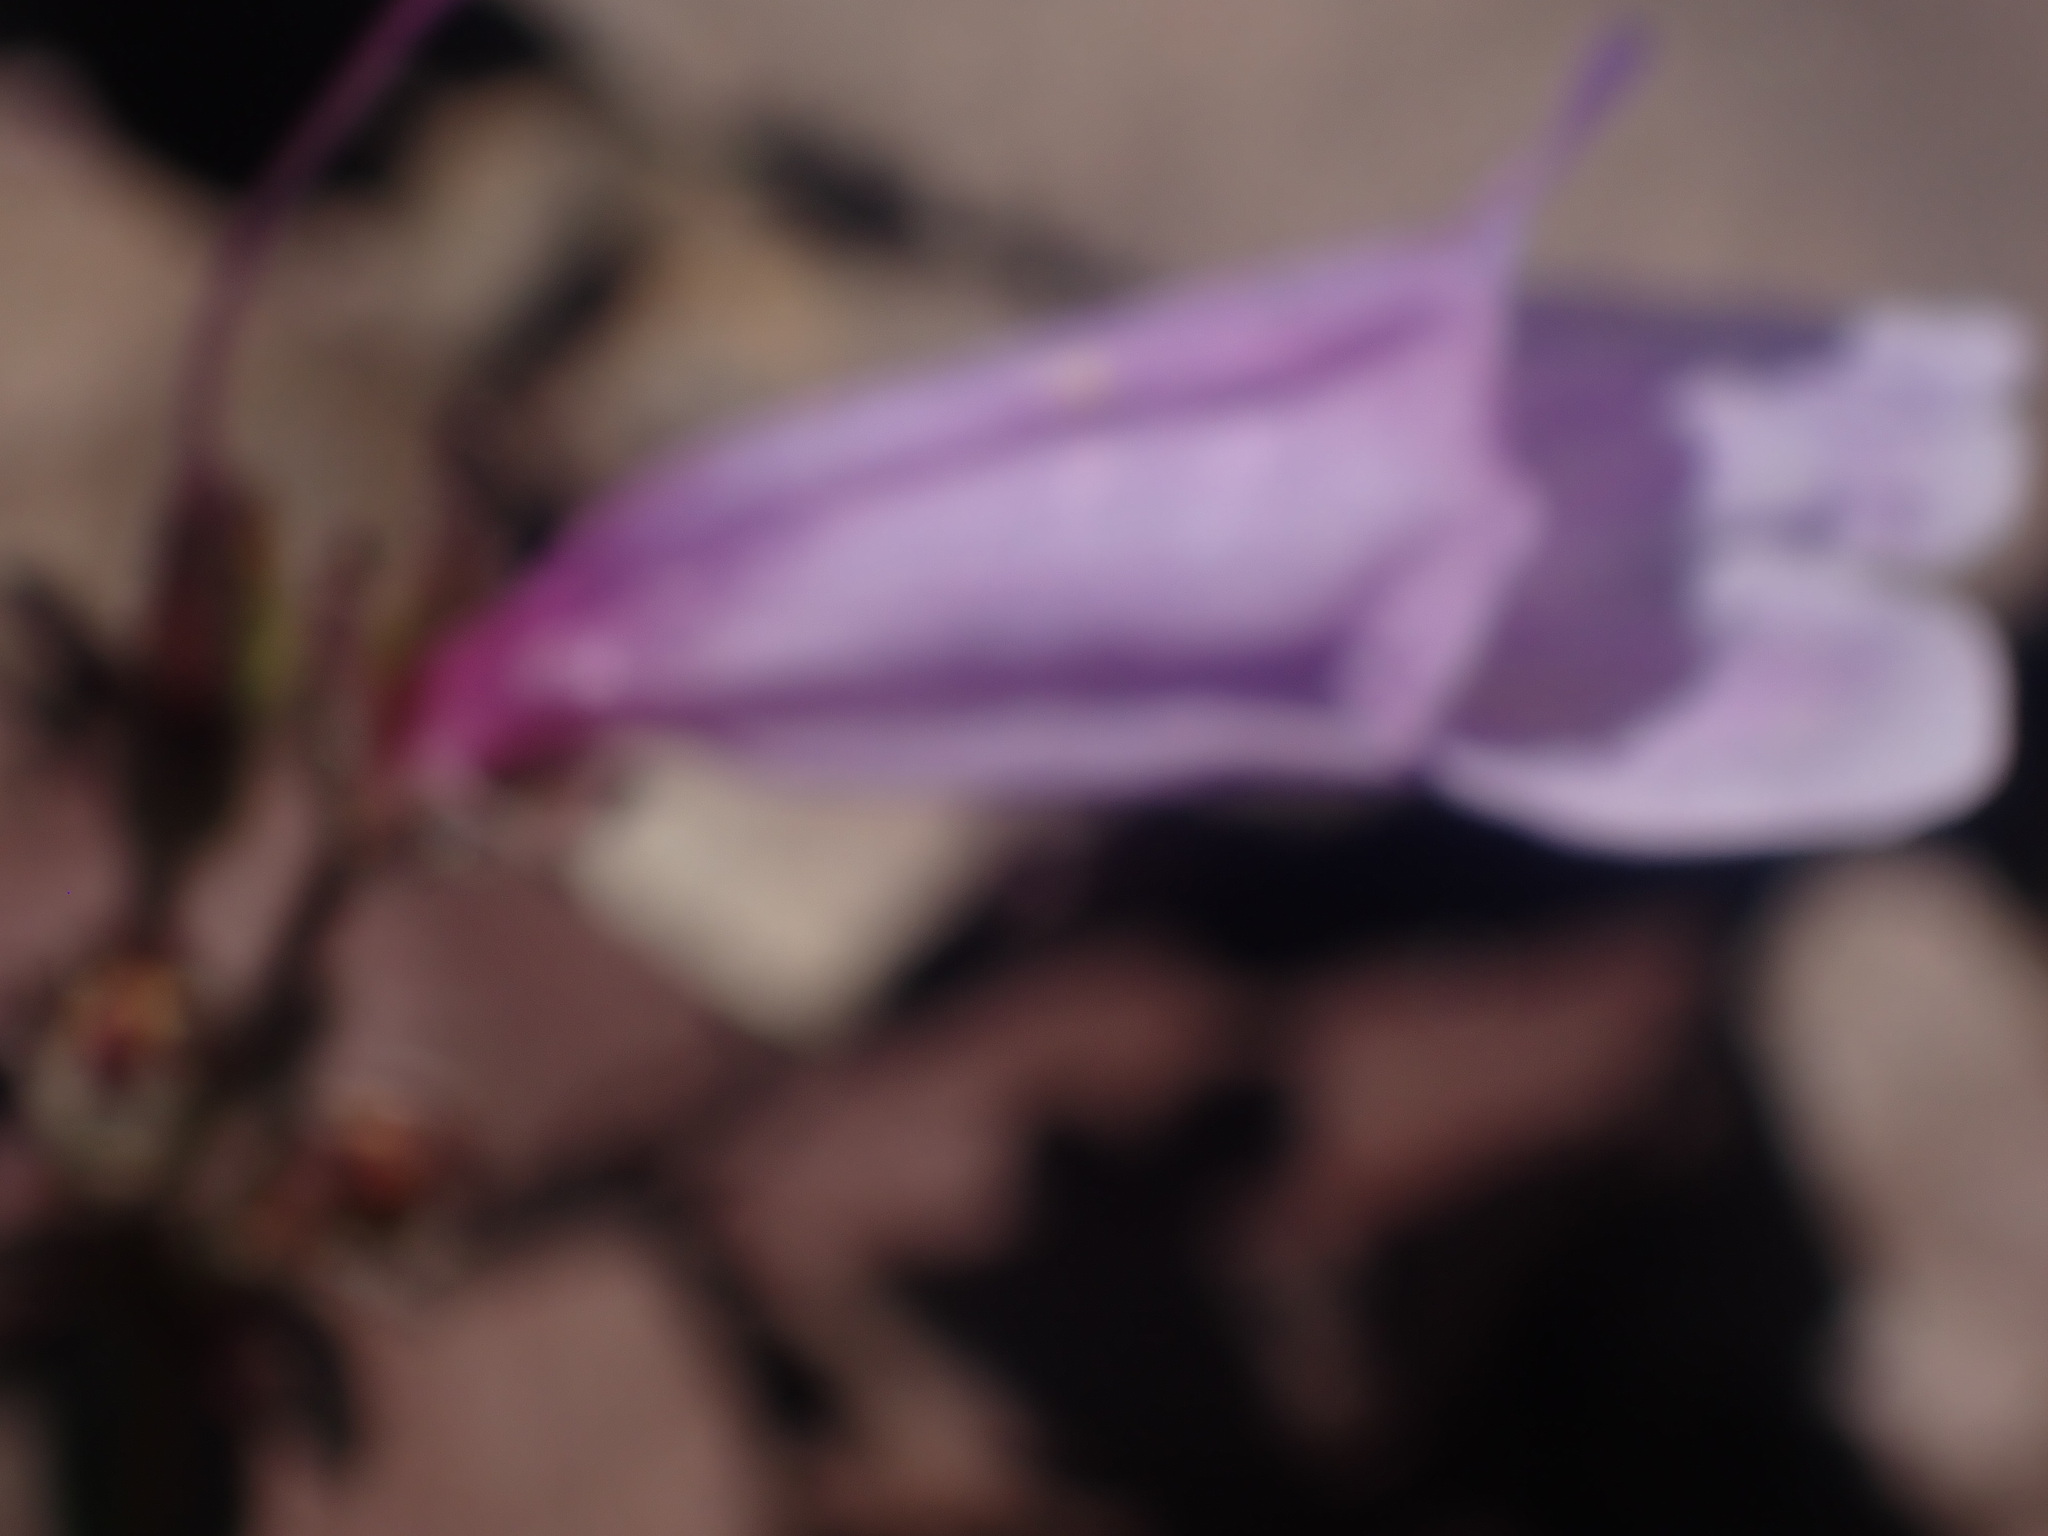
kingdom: Plantae
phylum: Tracheophyta
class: Magnoliopsida
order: Lamiales
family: Plantaginaceae
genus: Penstemon
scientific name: Penstemon ellipticus
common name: Alpine beardtongue
